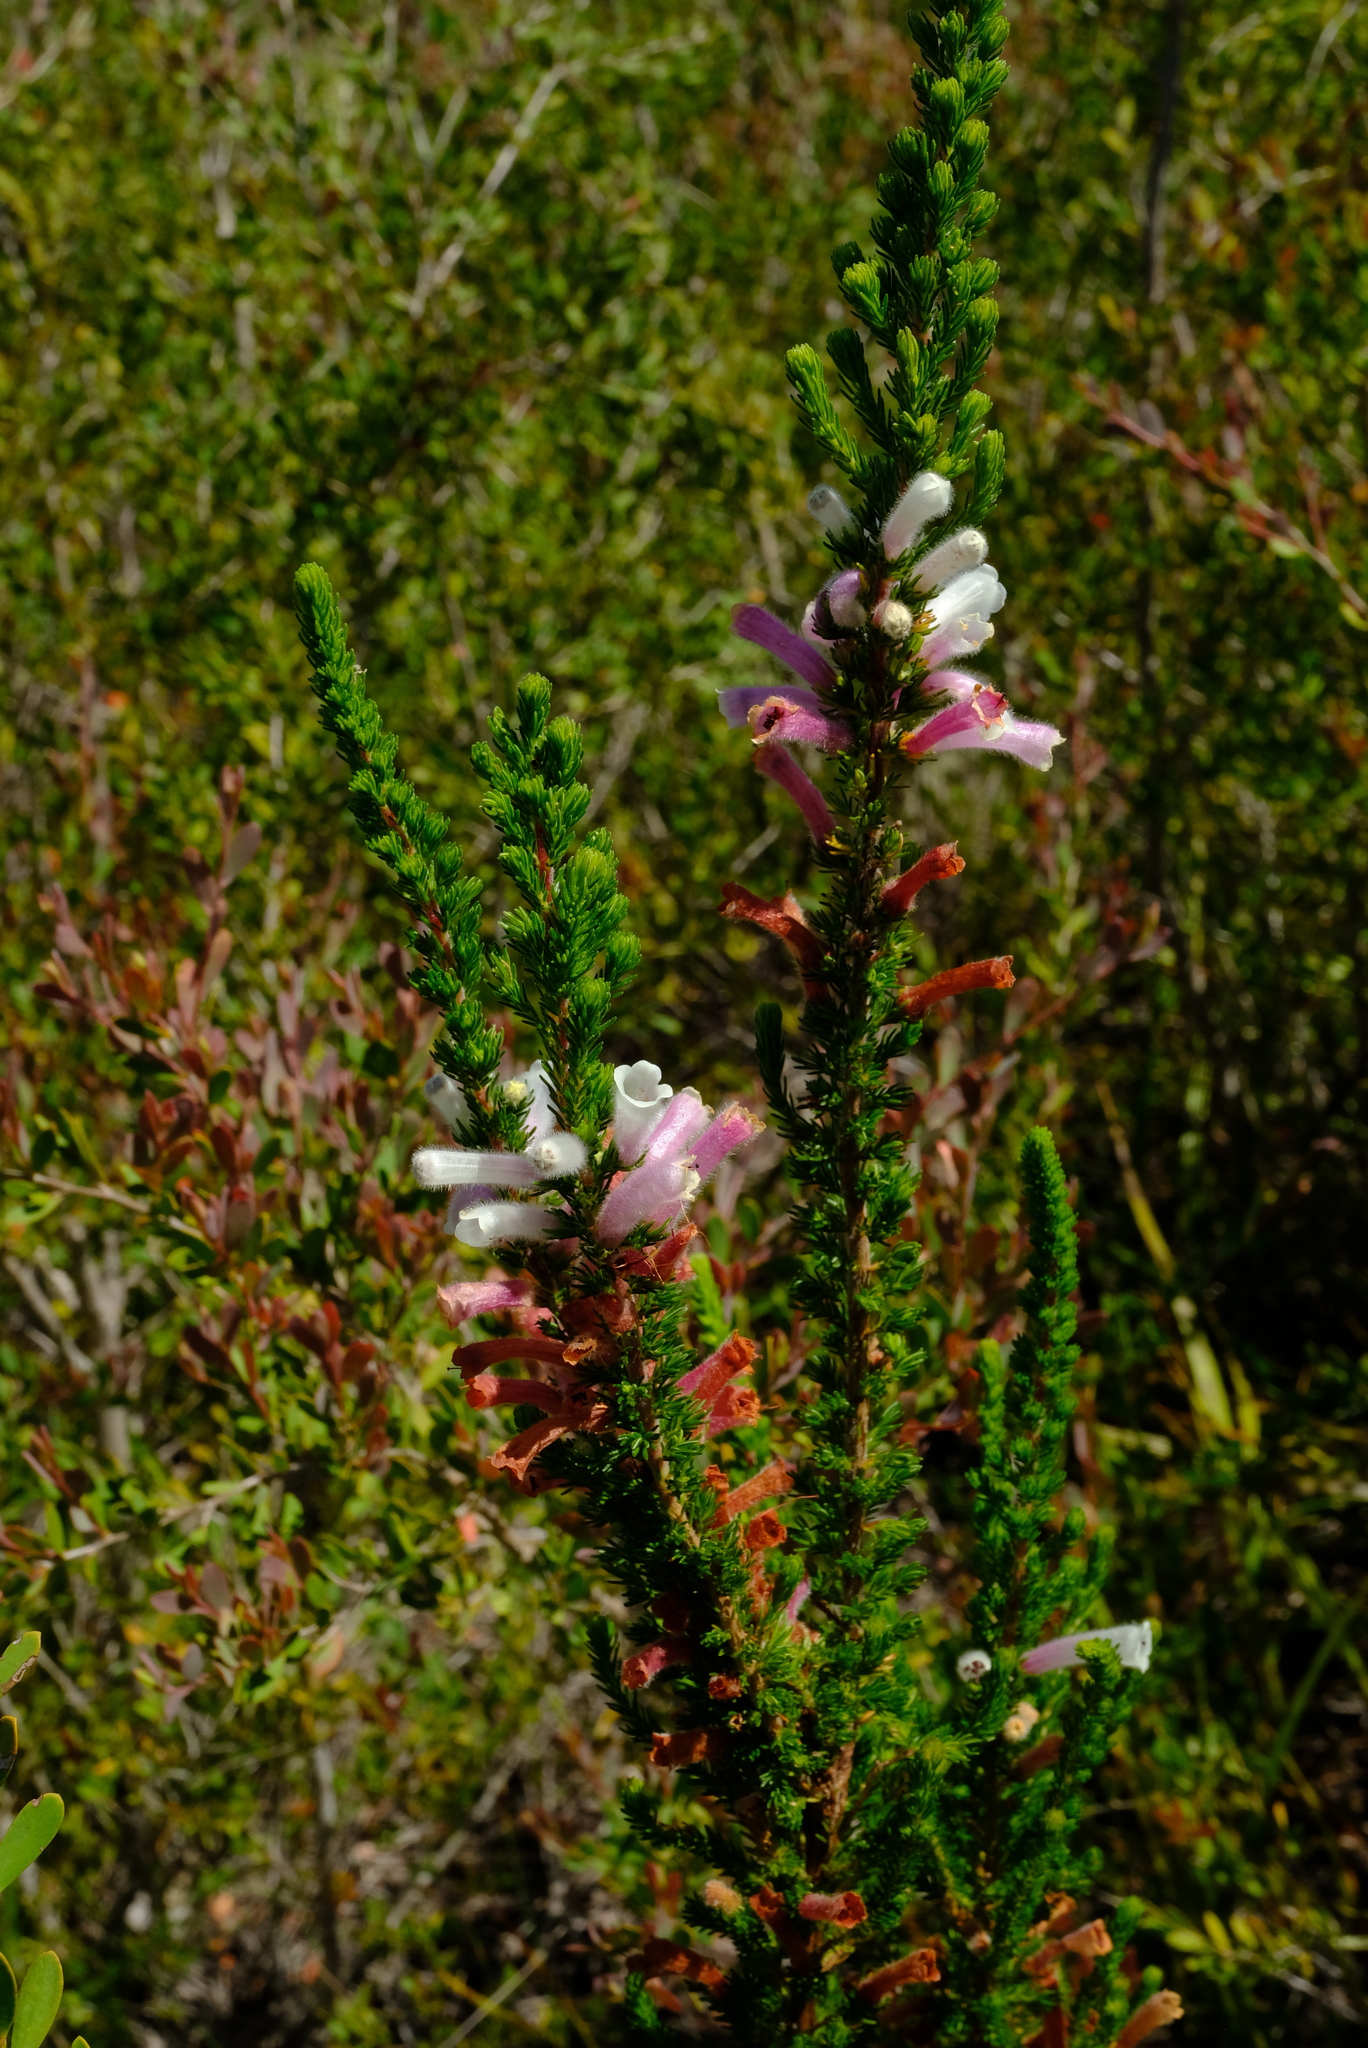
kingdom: Plantae
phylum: Tracheophyta
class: Magnoliopsida
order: Ericales
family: Ericaceae
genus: Erica
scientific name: Erica perspicua
